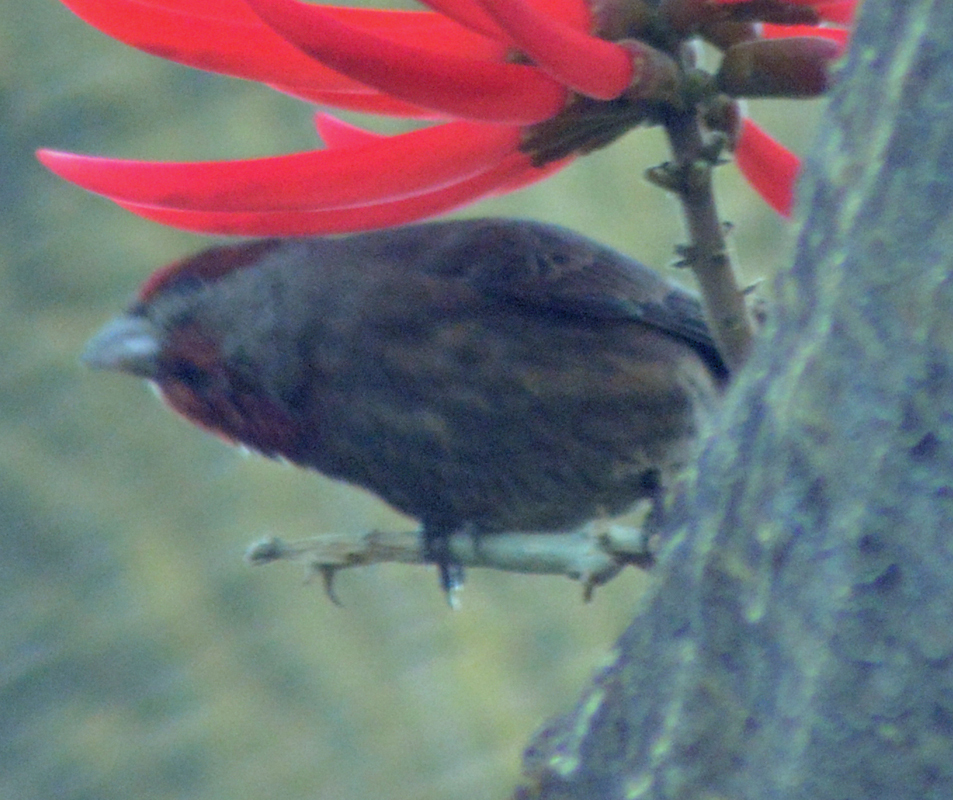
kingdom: Animalia
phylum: Chordata
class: Aves
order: Passeriformes
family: Fringillidae
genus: Haemorhous
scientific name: Haemorhous mexicanus
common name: House finch
